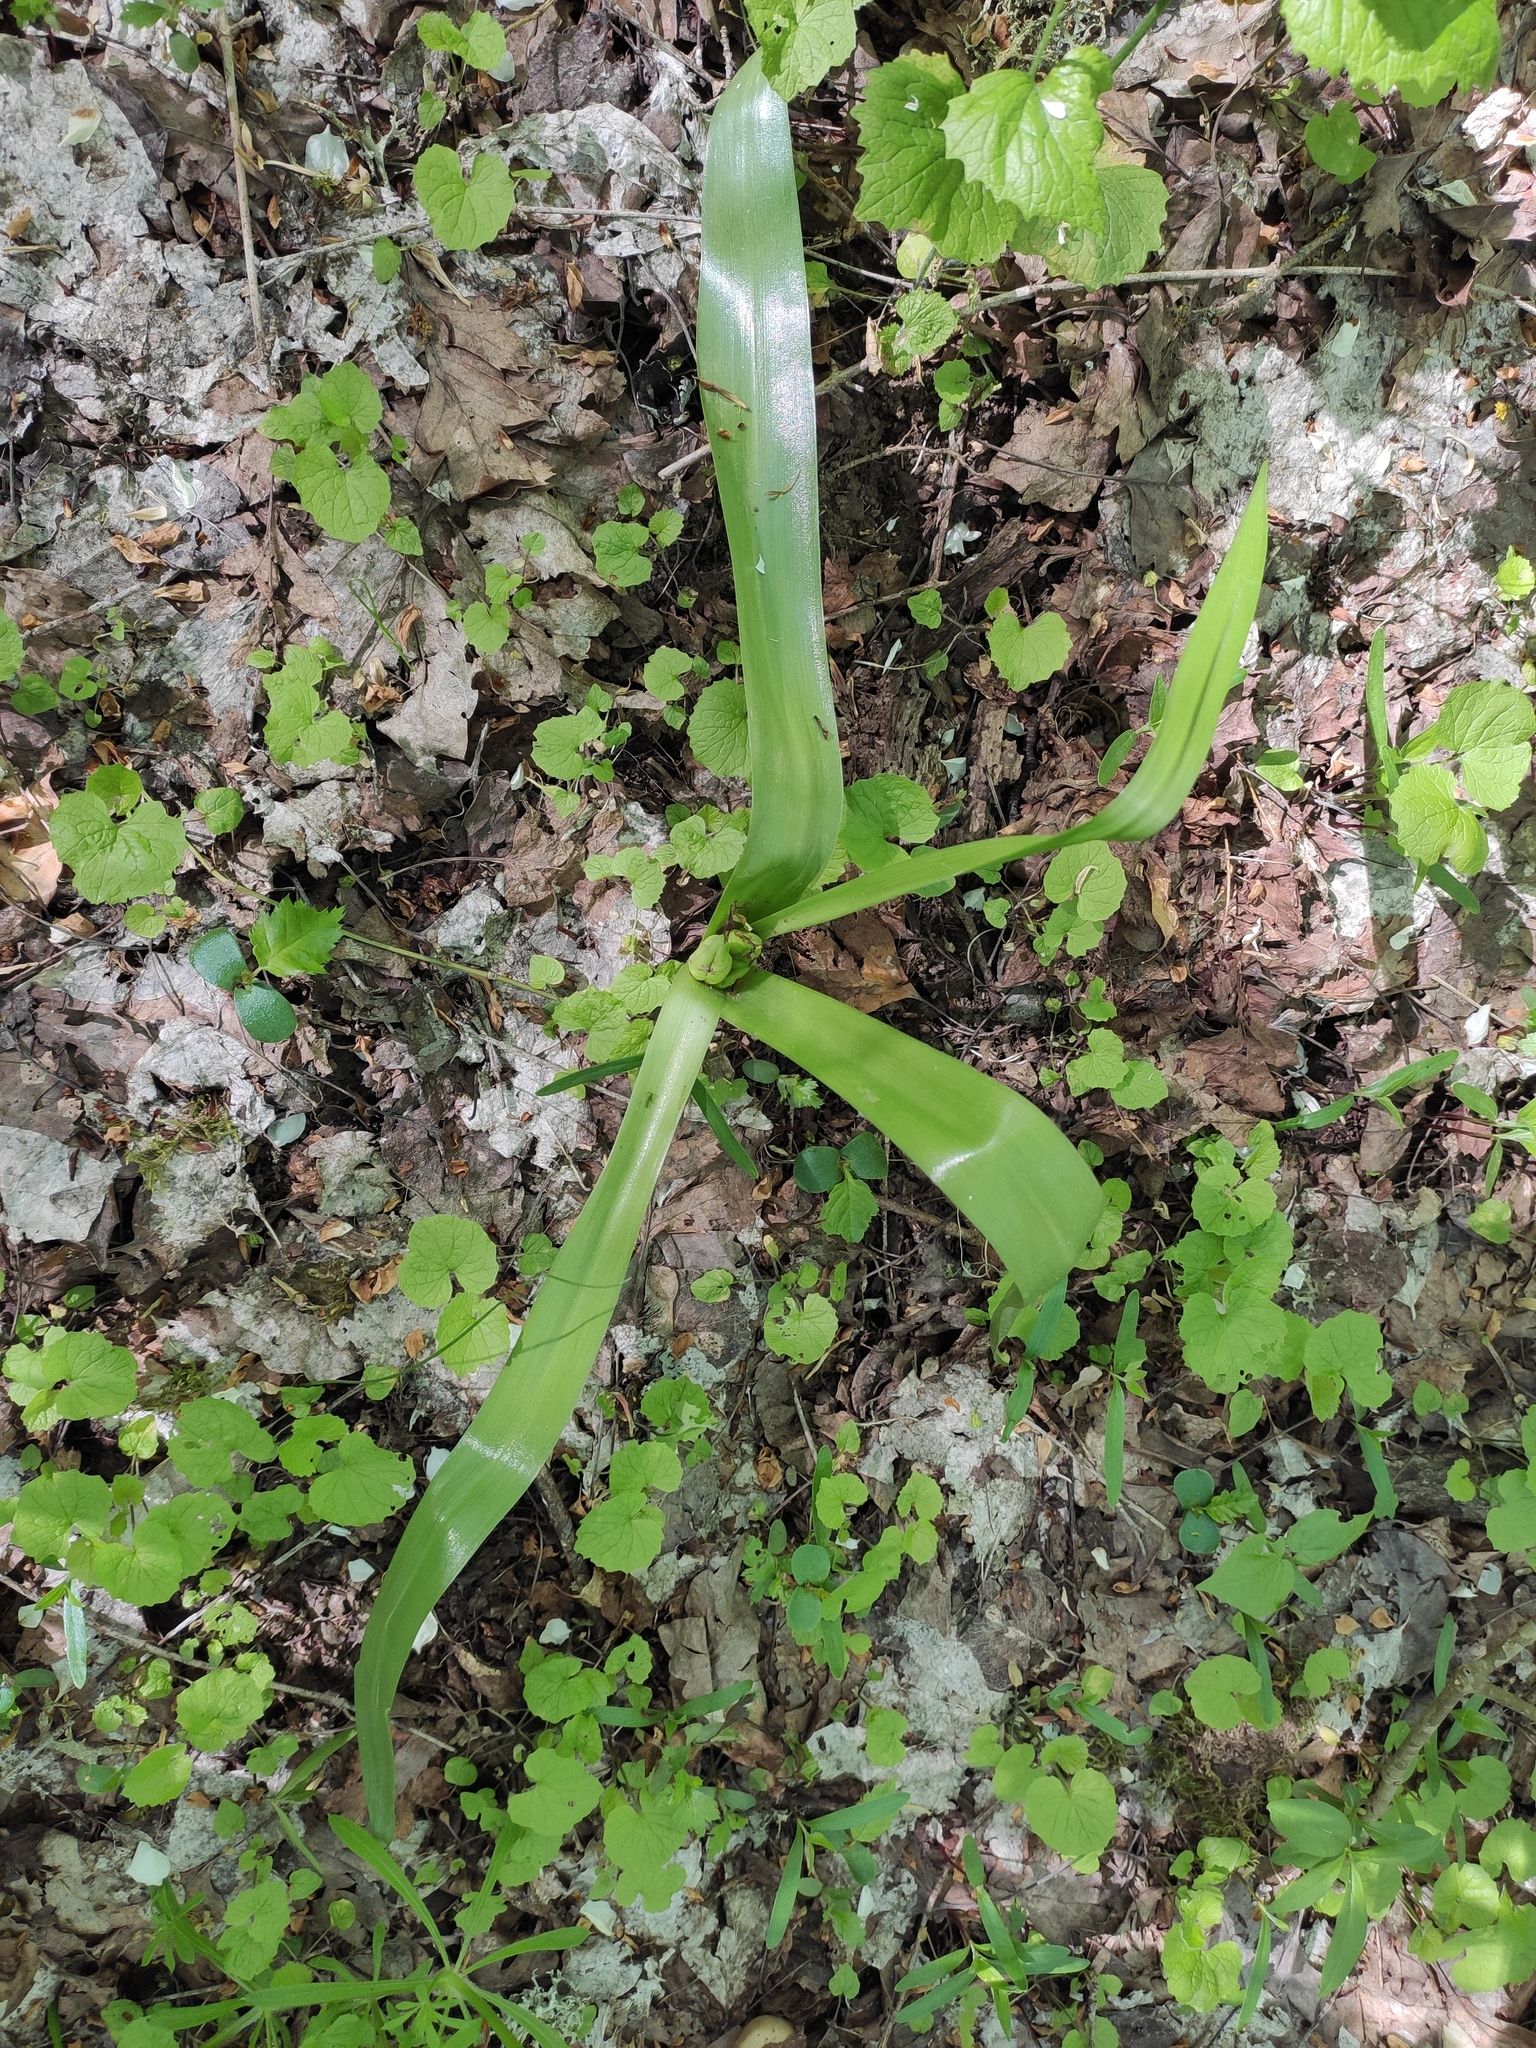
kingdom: Plantae
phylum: Tracheophyta
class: Liliopsida
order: Liliales
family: Colchicaceae
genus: Colchicum
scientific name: Colchicum umbrosum
